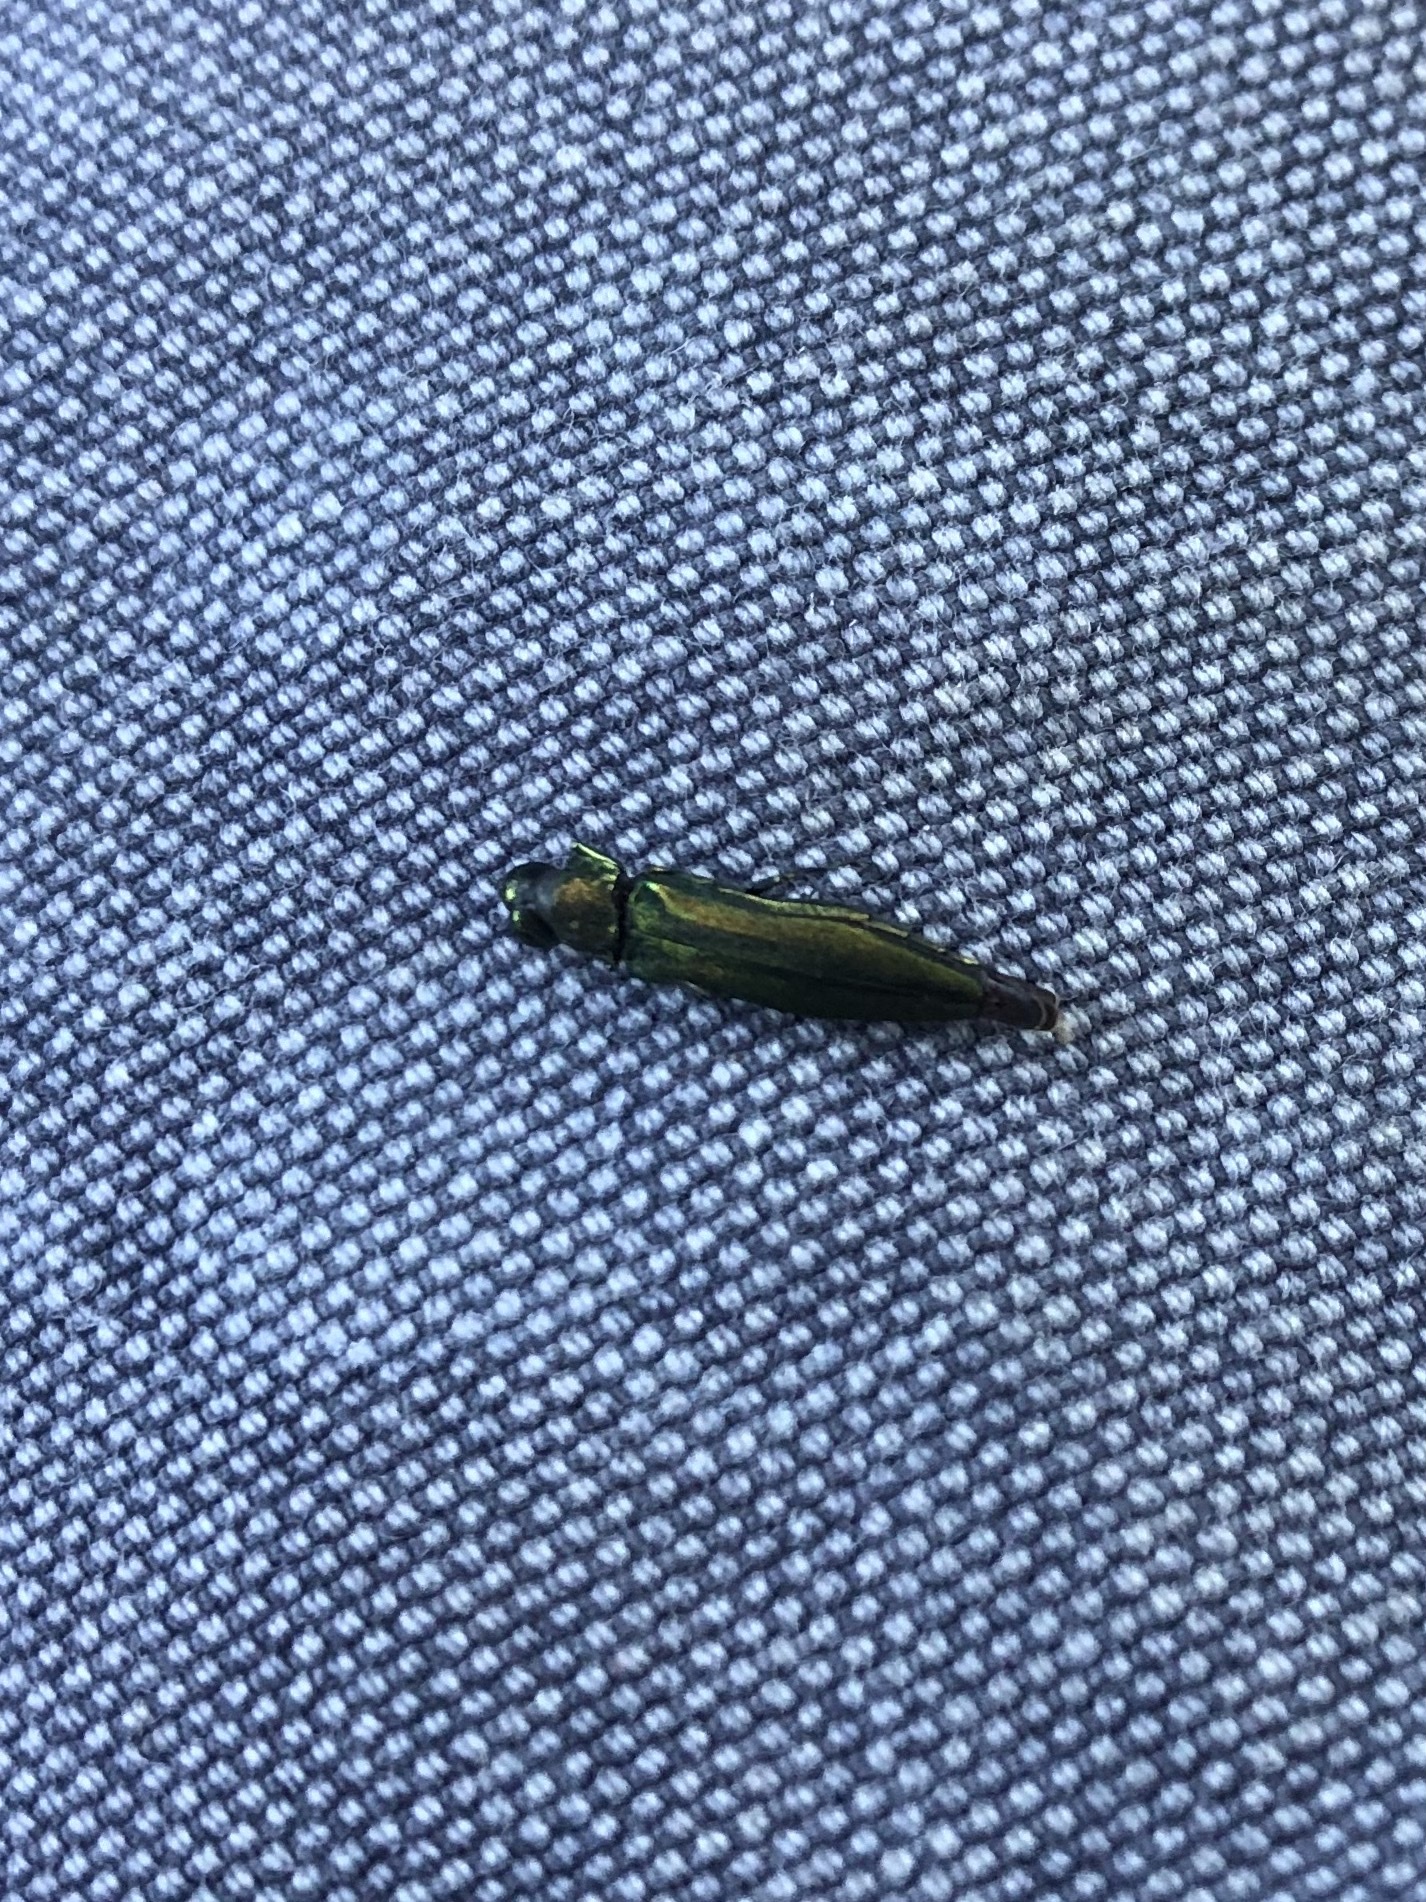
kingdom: Animalia
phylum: Arthropoda
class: Insecta
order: Coleoptera
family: Buprestidae
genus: Agrilus
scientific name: Agrilus planipennis
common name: Emerald ash borer
